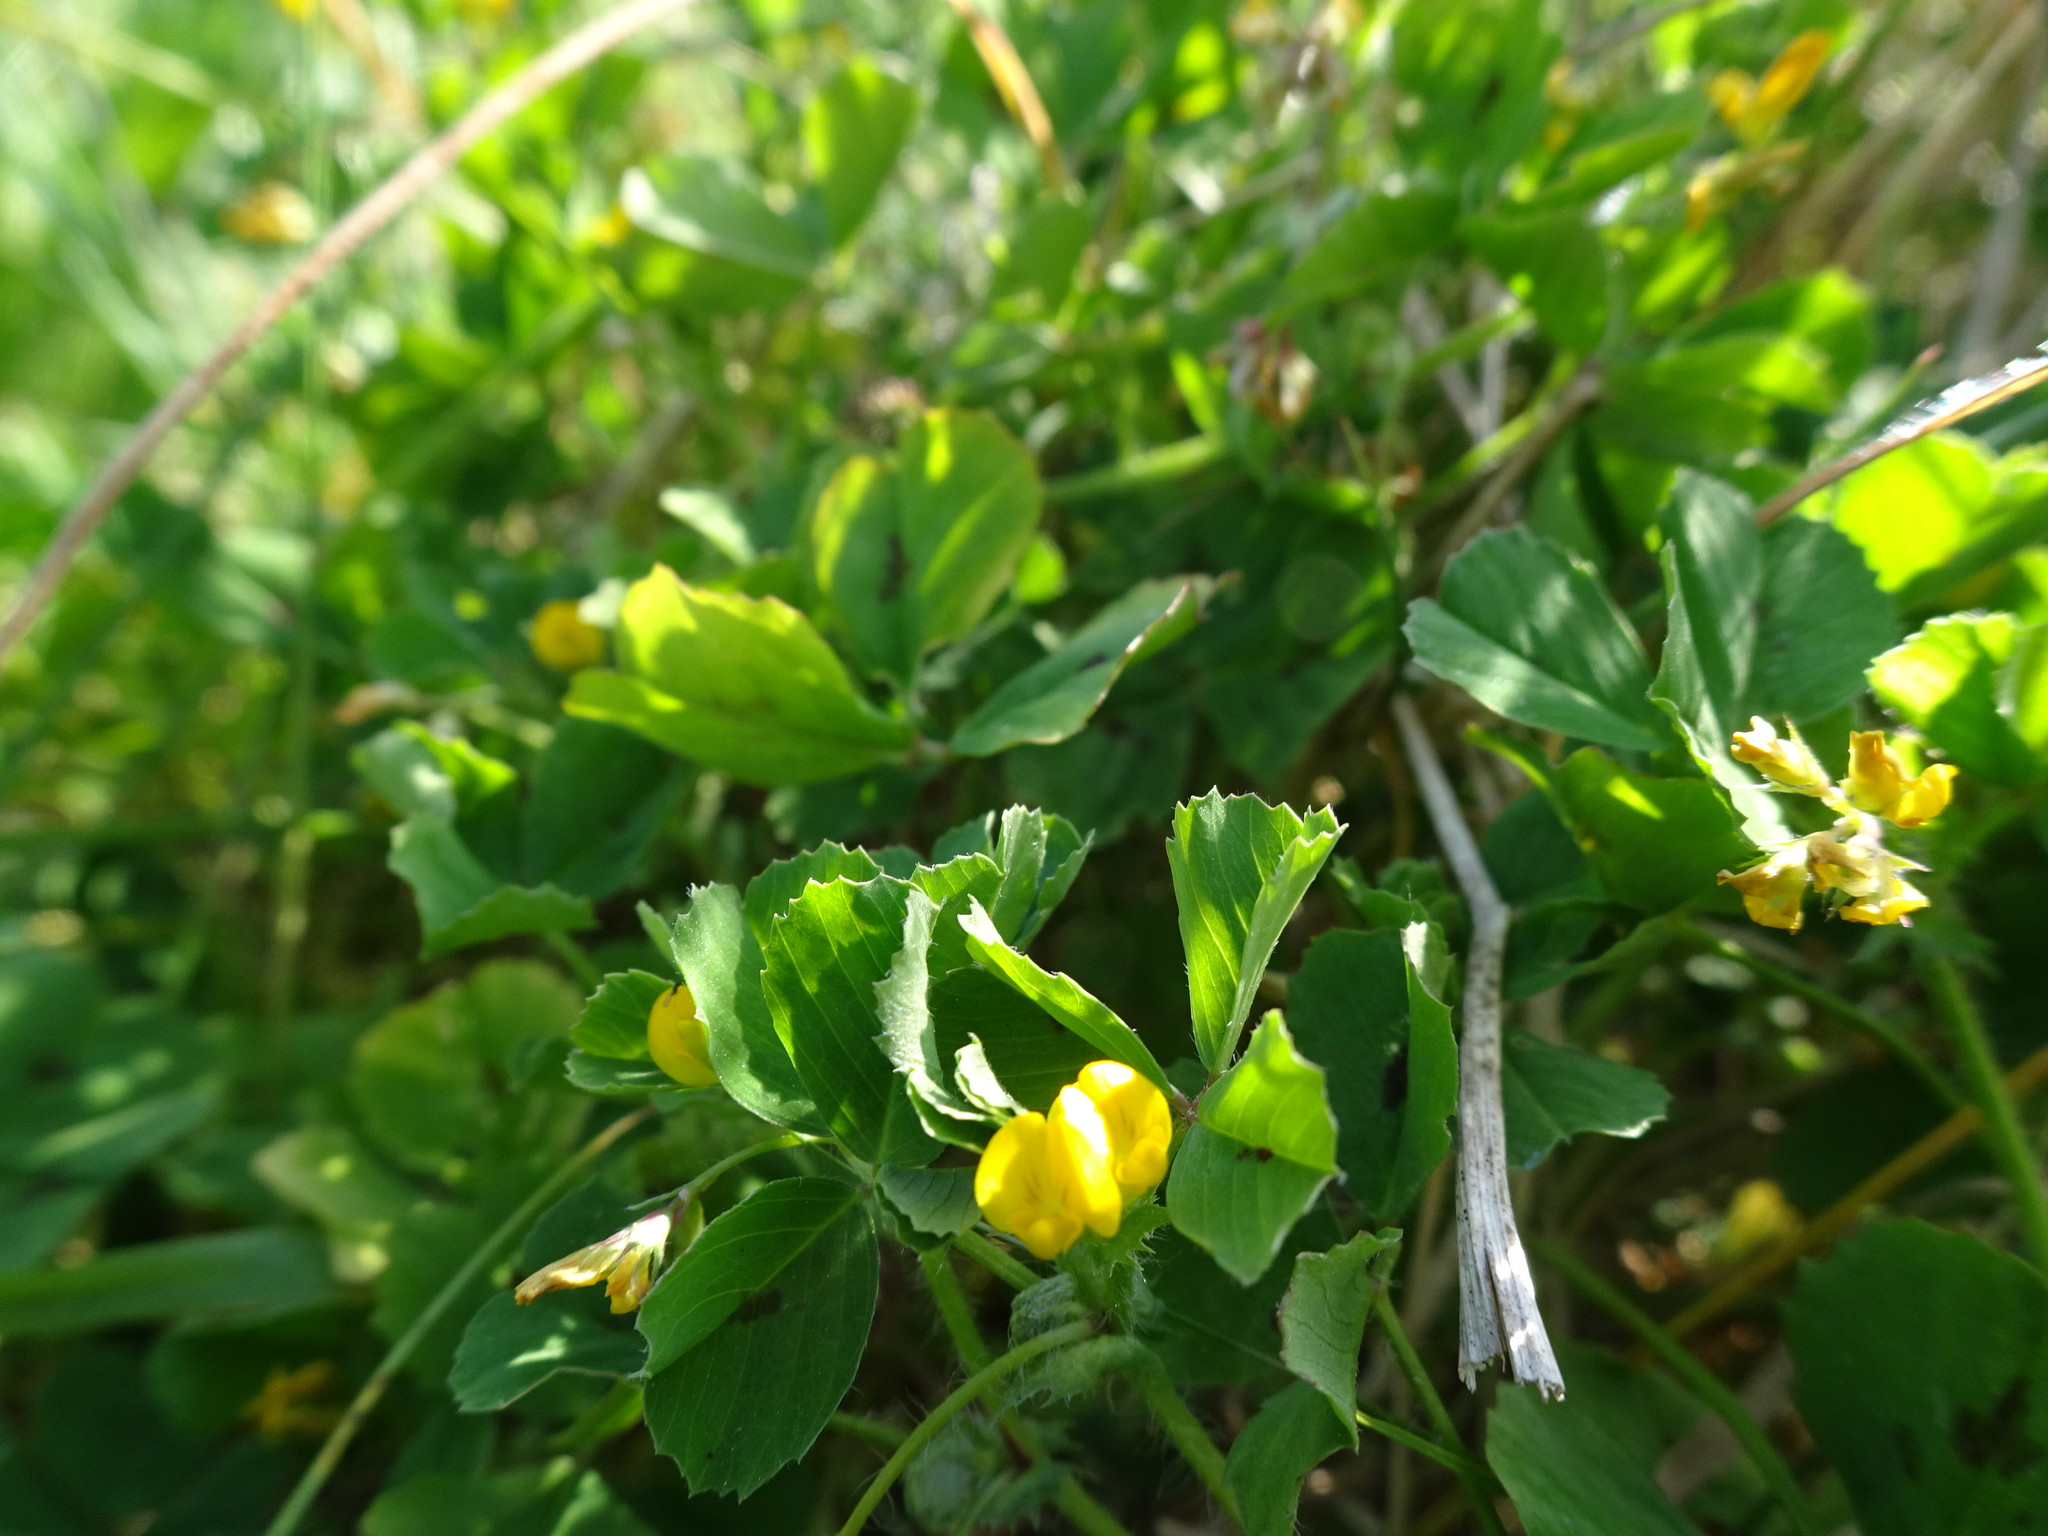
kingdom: Plantae
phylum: Tracheophyta
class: Magnoliopsida
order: Fabales
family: Fabaceae
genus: Medicago
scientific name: Medicago arabica
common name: Spotted medick
